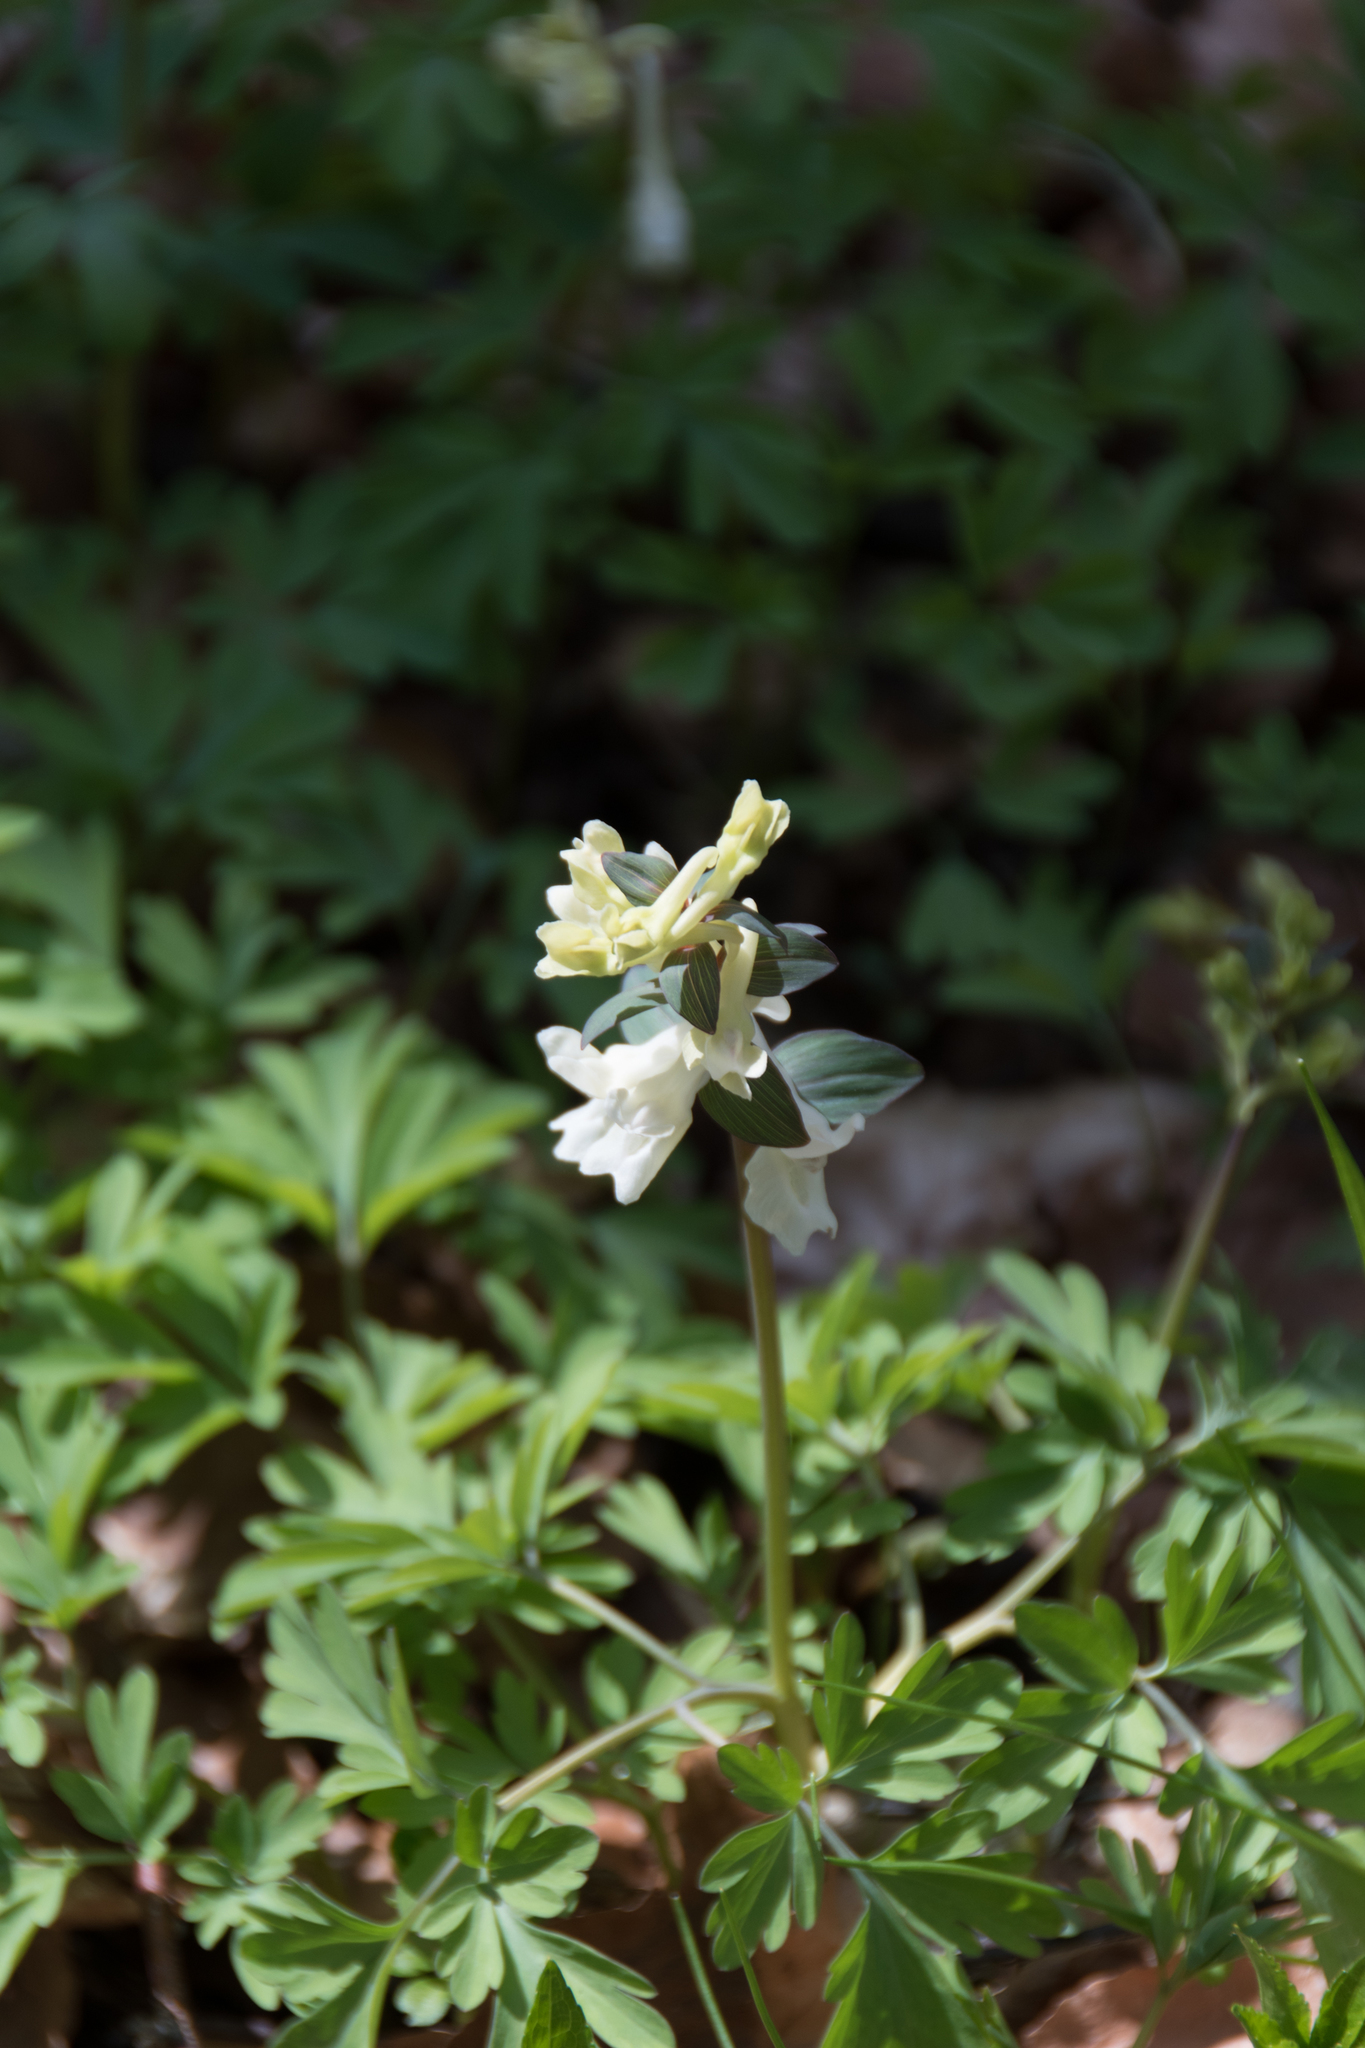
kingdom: Plantae
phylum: Tracheophyta
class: Magnoliopsida
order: Ranunculales
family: Papaveraceae
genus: Corydalis
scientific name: Corydalis cava
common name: Hollowroot
